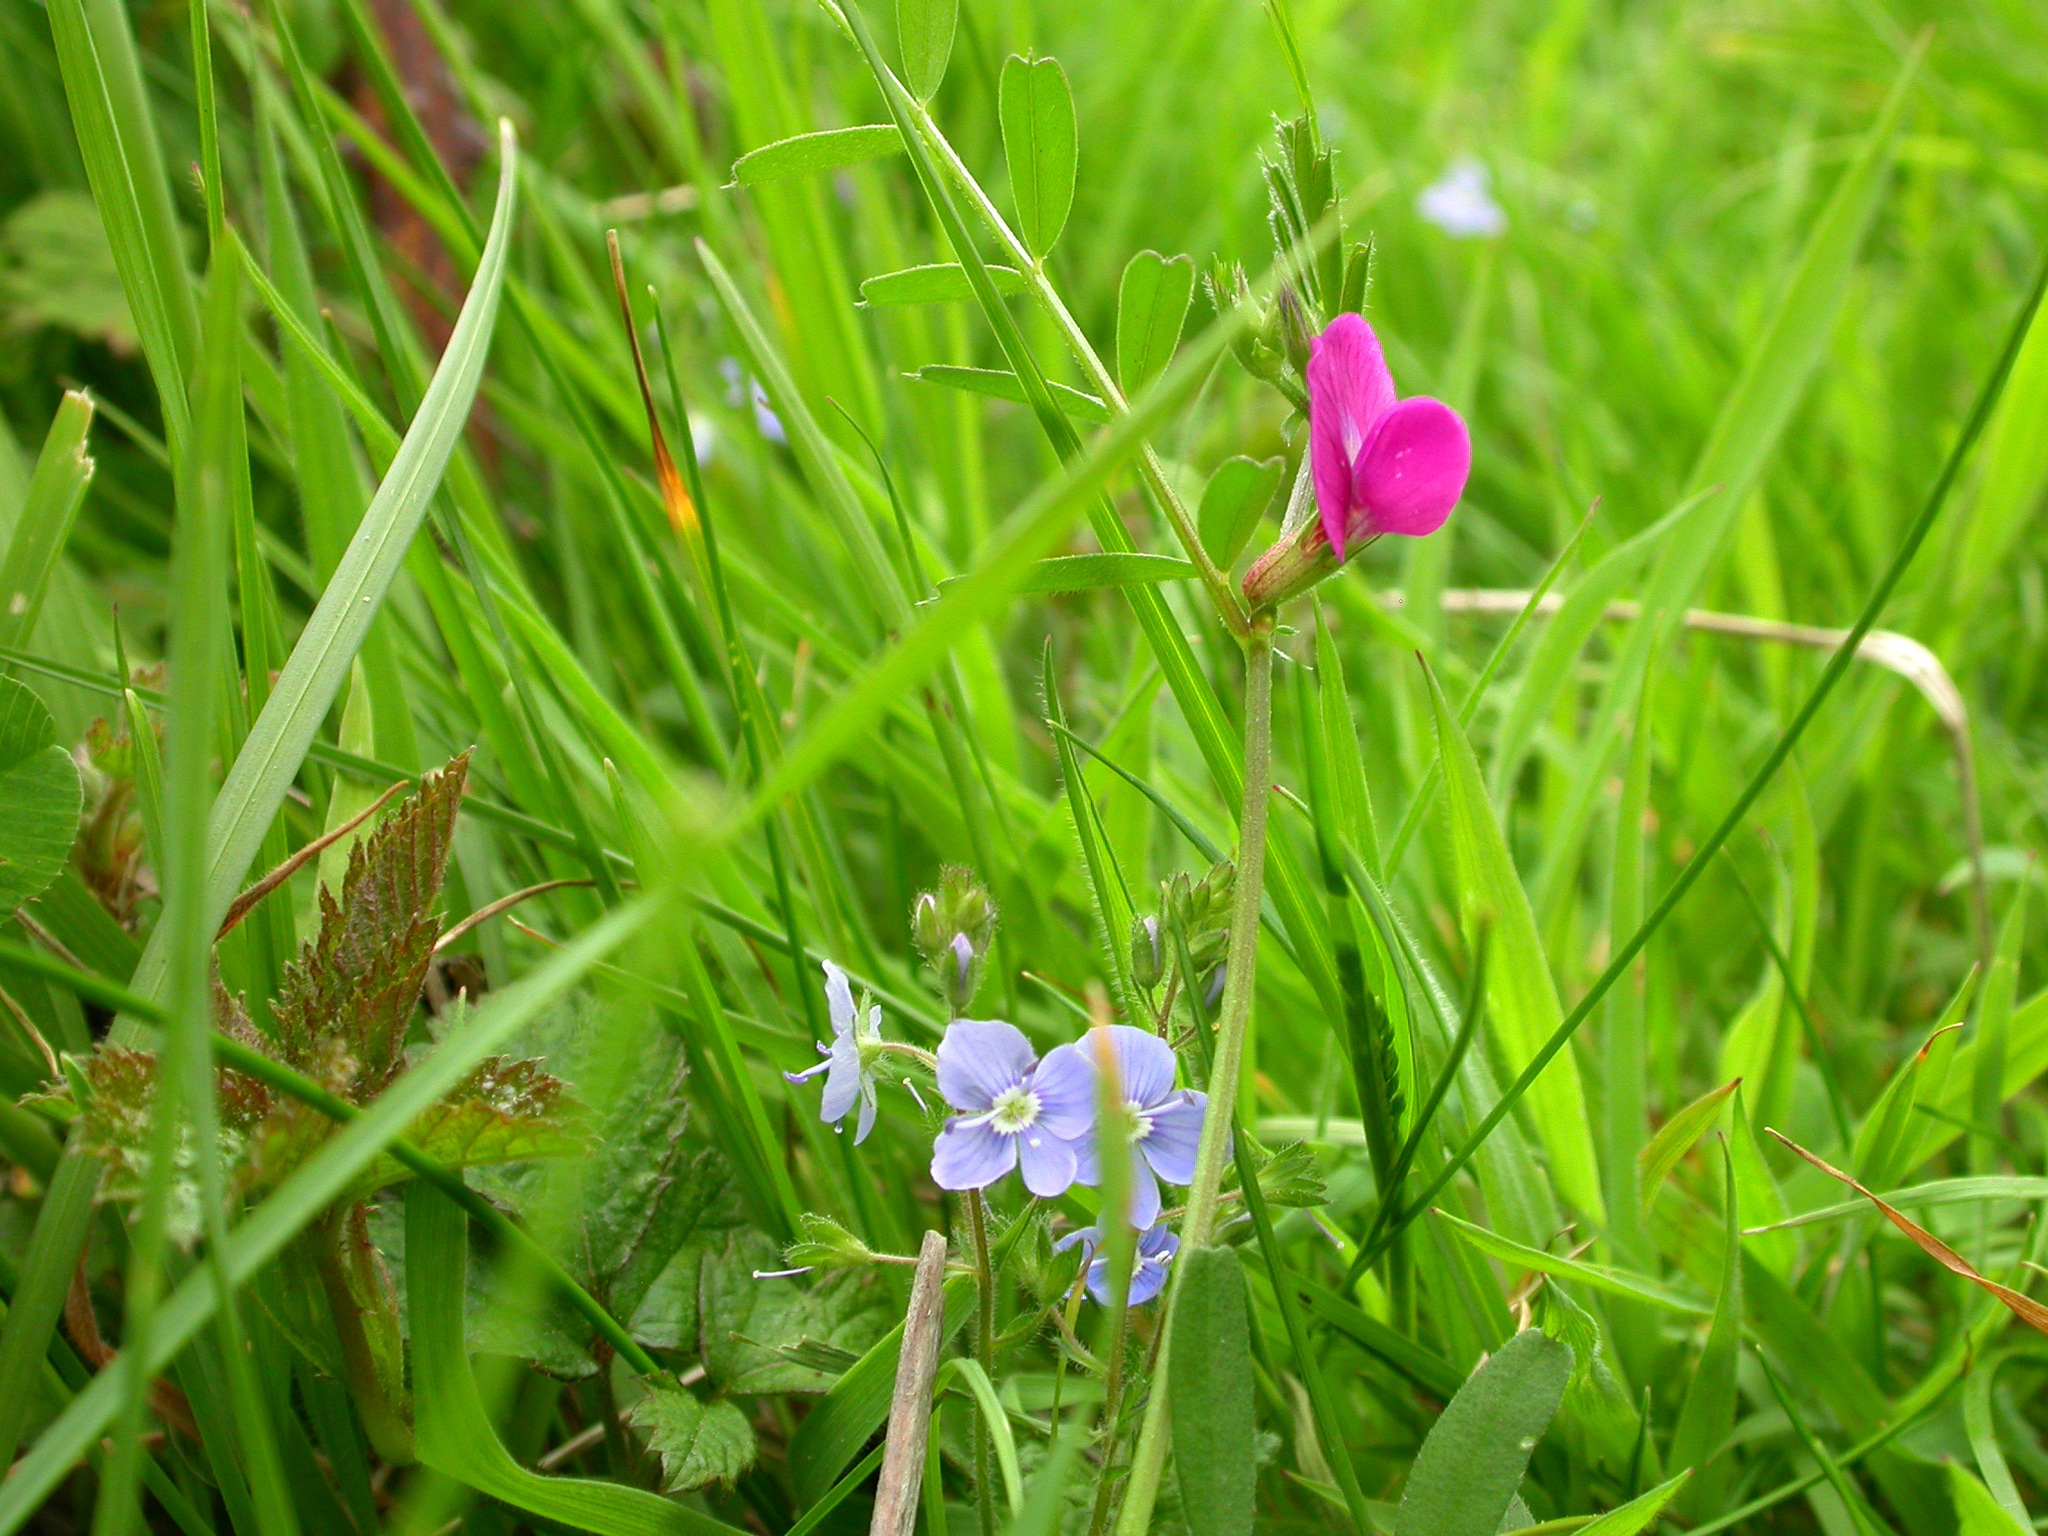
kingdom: Plantae
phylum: Tracheophyta
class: Magnoliopsida
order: Fabales
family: Fabaceae
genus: Vicia
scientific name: Vicia sativa
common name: Garden vetch
